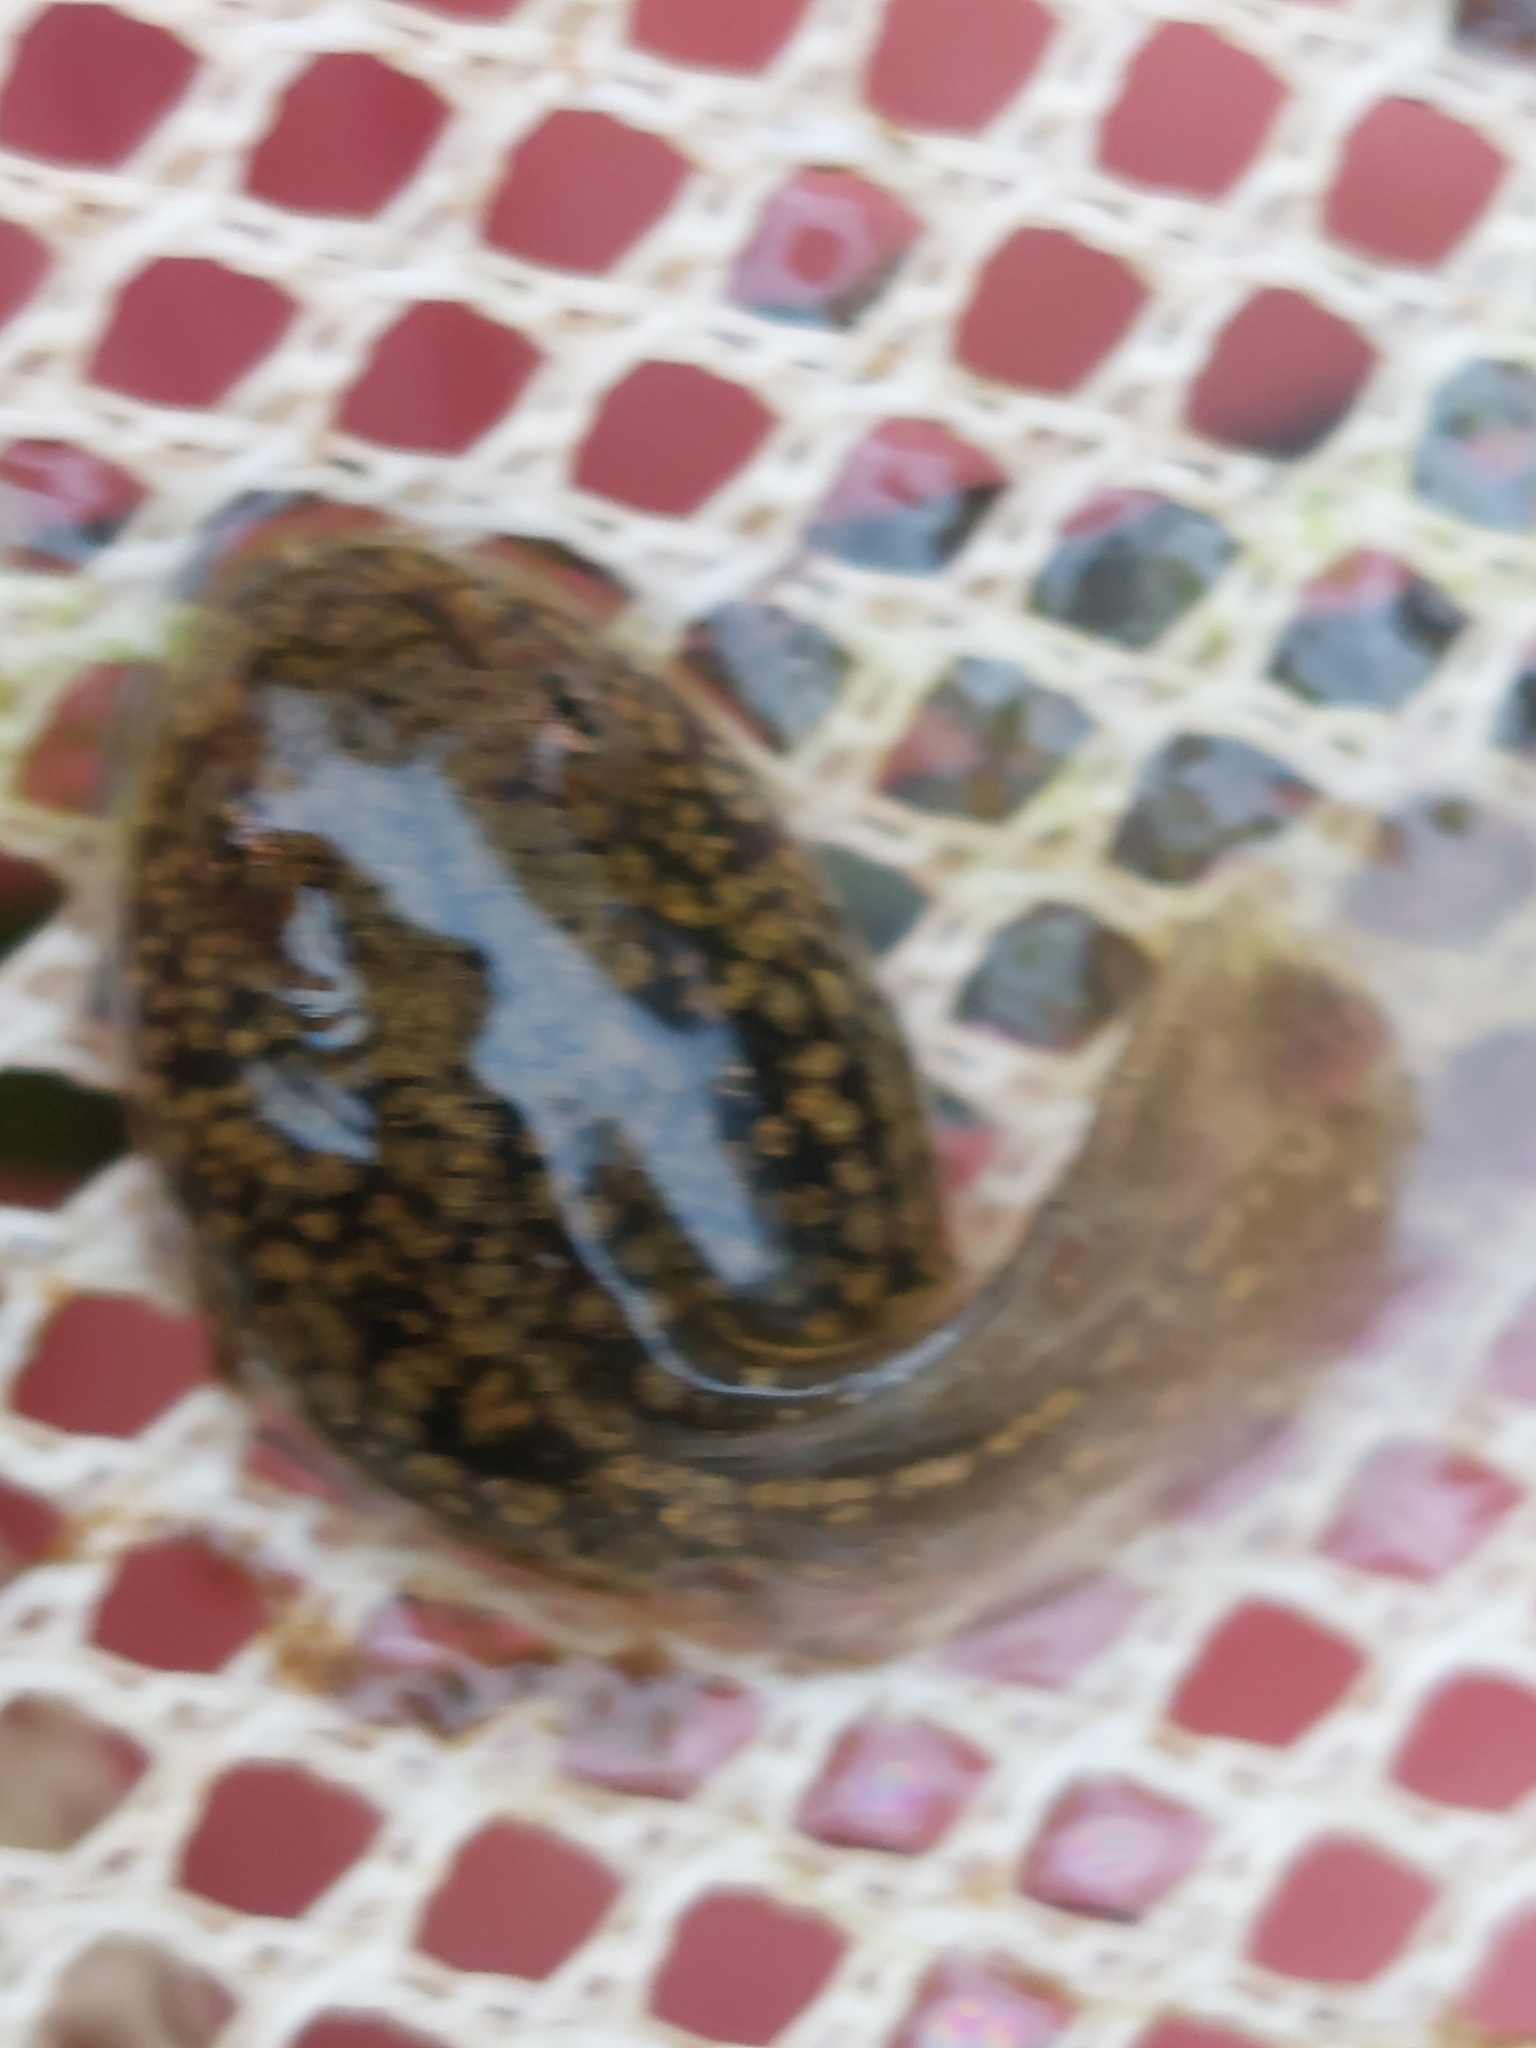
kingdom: Animalia
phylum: Chordata
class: Amphibia
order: Anura
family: Ranidae
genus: Rana
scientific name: Rana temporaria
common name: Common frog
